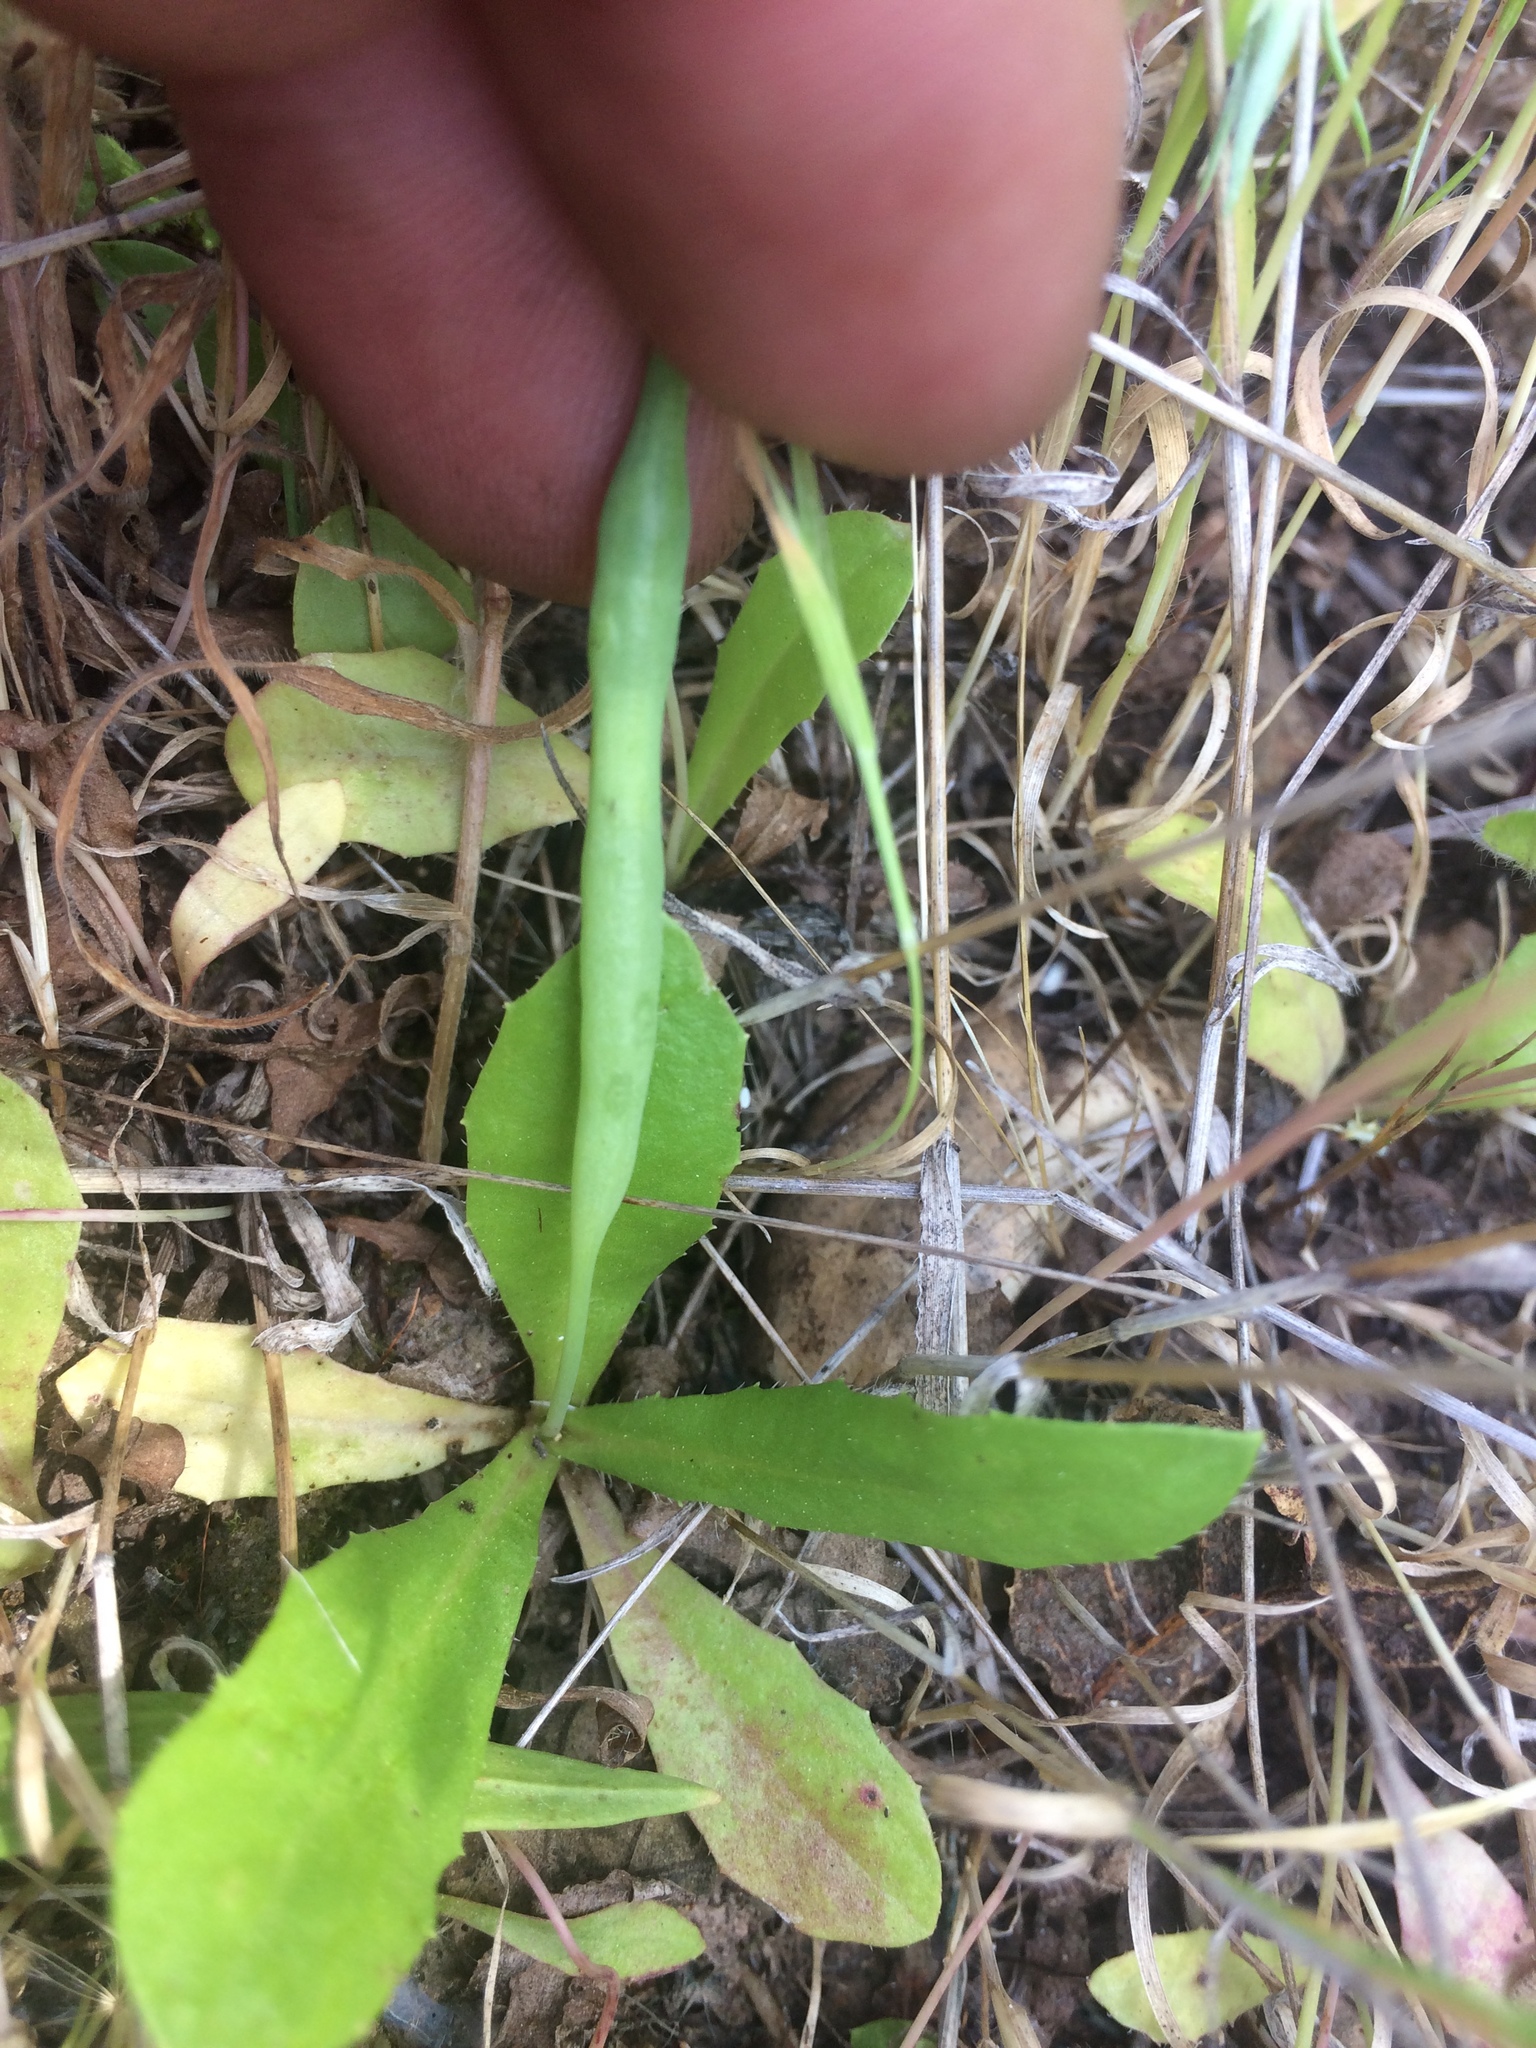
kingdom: Plantae
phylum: Tracheophyta
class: Magnoliopsida
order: Asterales
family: Asteraceae
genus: Hypochaeris
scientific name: Hypochaeris glabra
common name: Smooth catsear
